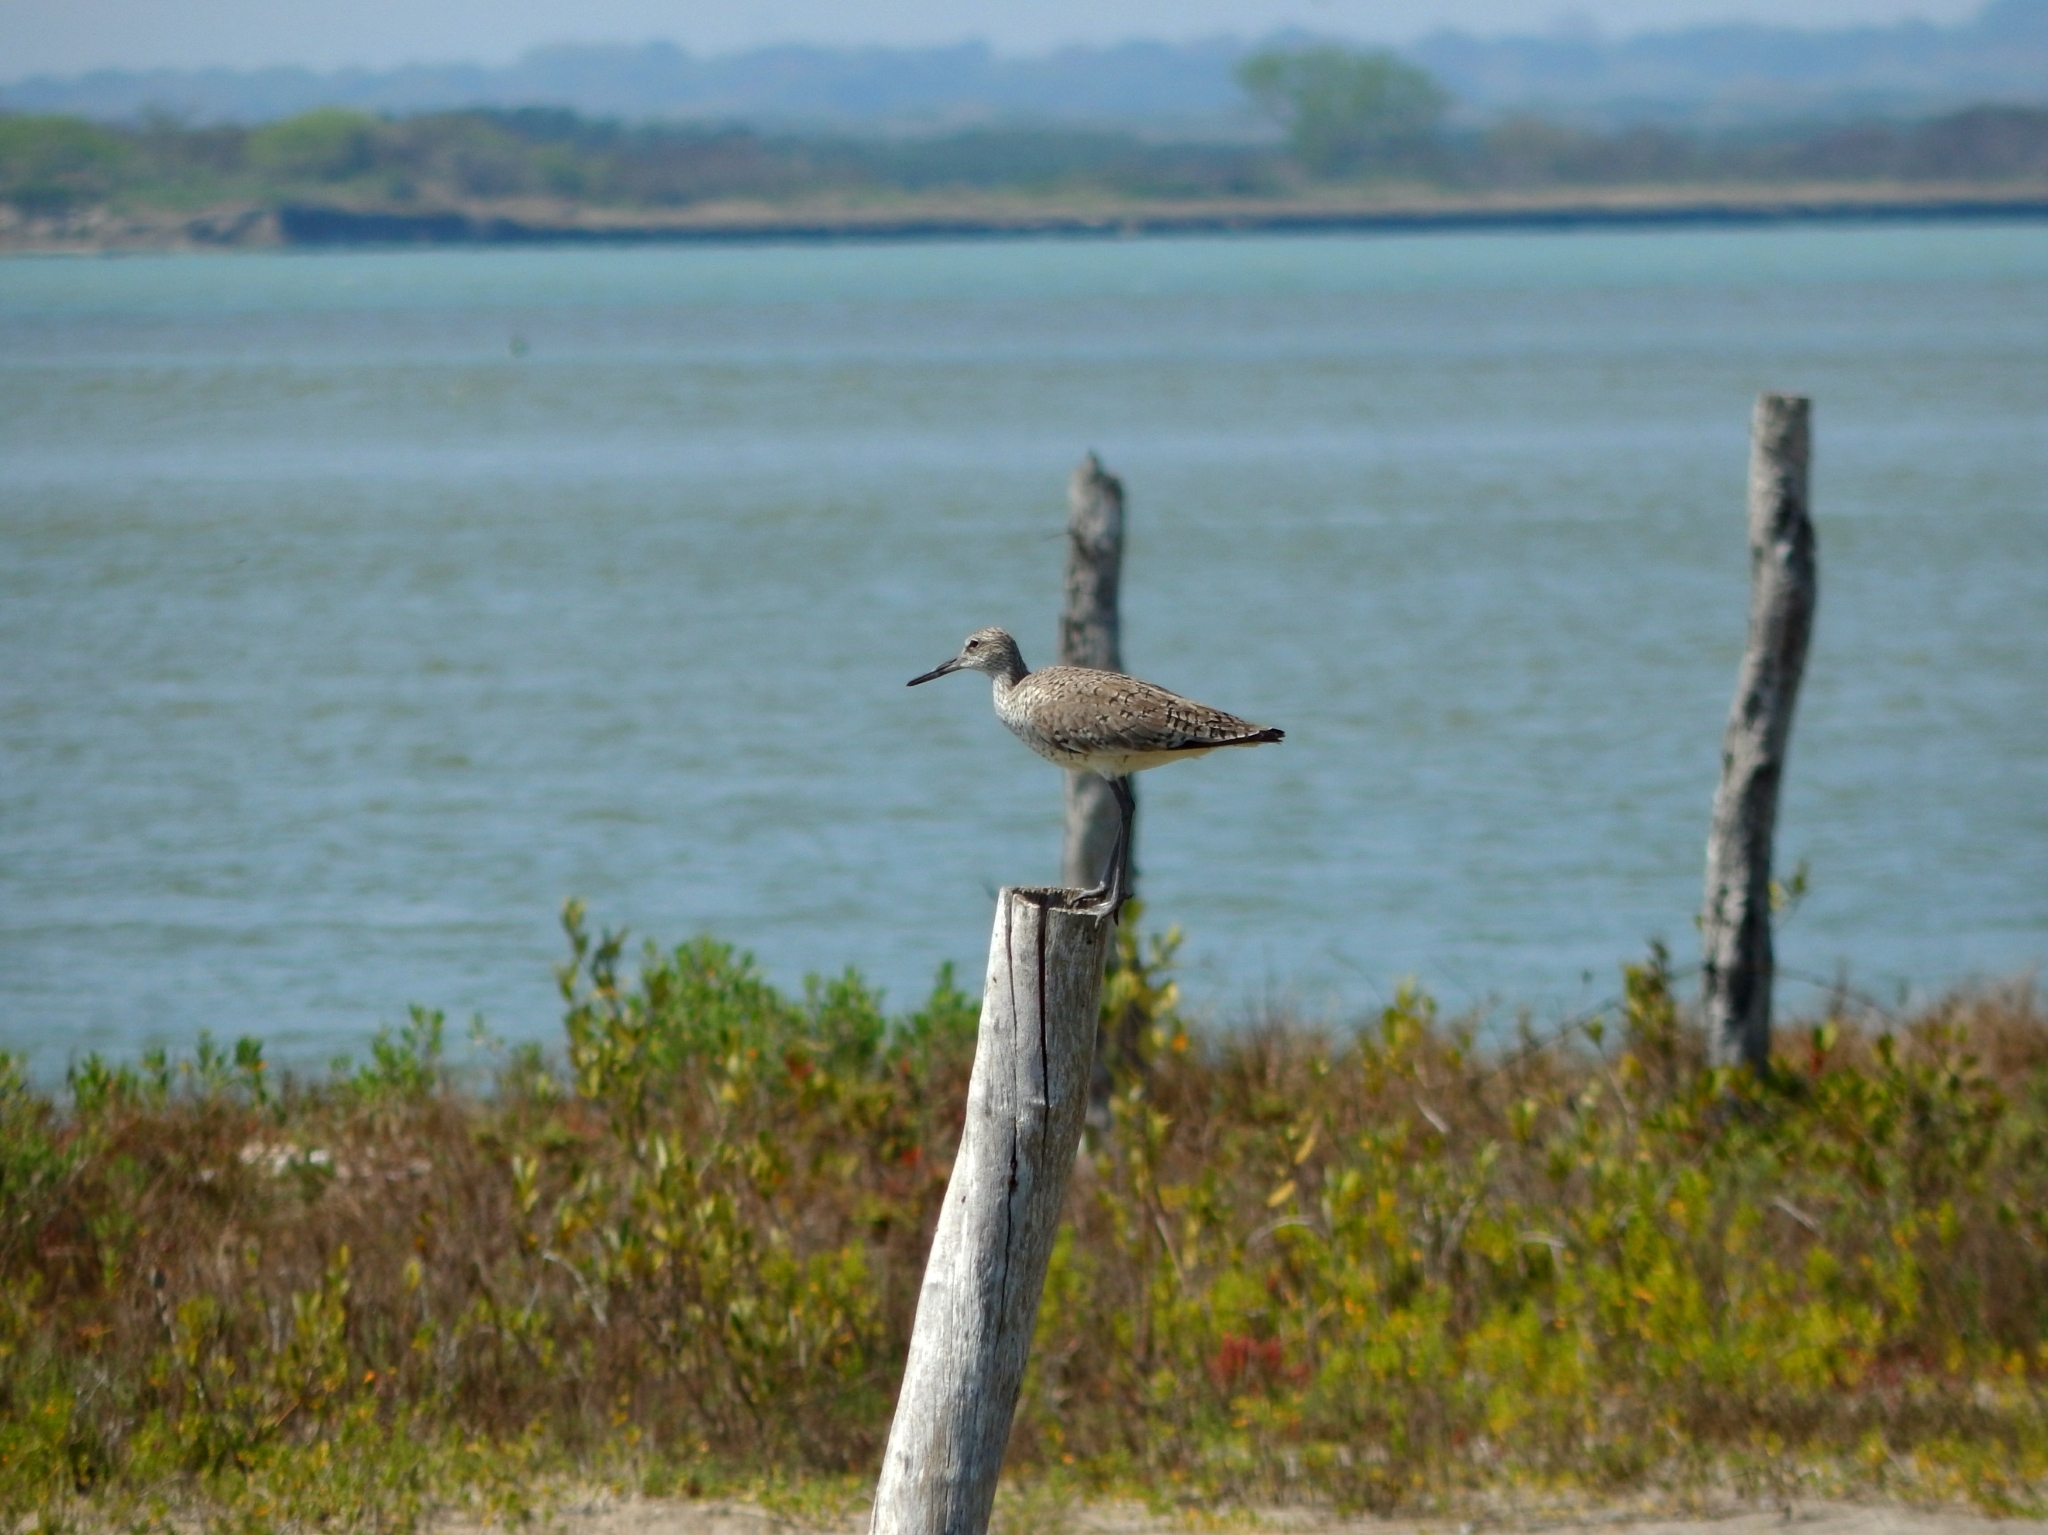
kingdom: Animalia
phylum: Chordata
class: Aves
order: Charadriiformes
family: Scolopacidae
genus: Tringa
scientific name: Tringa semipalmata
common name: Willet
